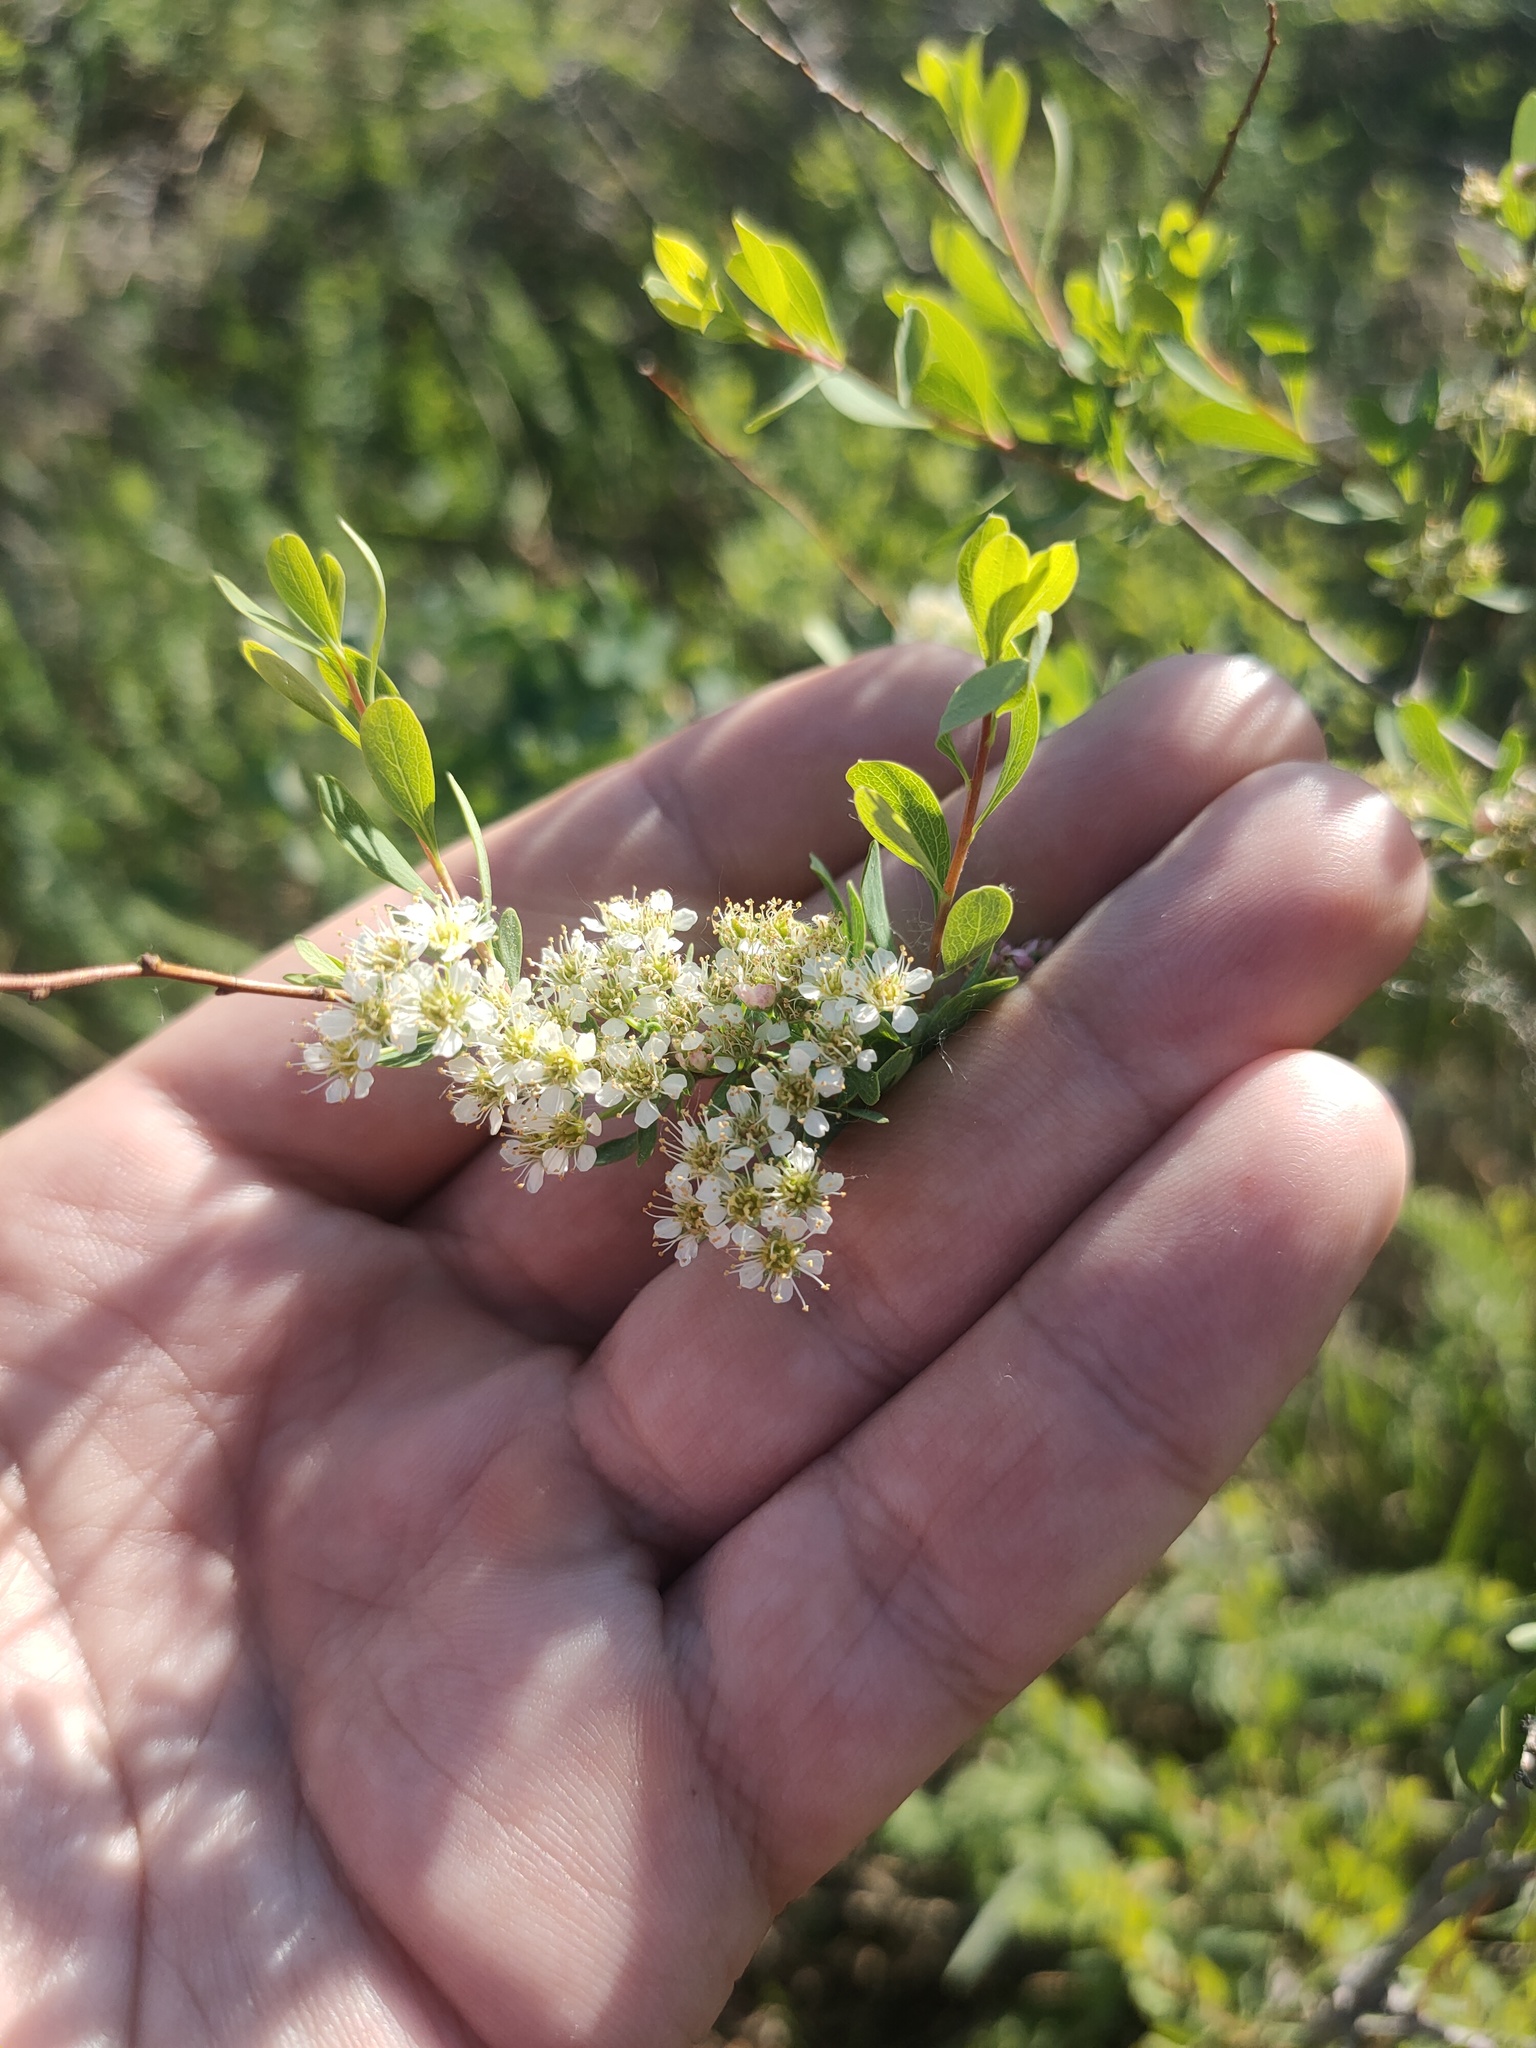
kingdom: Plantae
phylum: Tracheophyta
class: Magnoliopsida
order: Rosales
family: Rosaceae
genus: Spiraea
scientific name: Spiraea hypericifolia
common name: Iberian spirea
